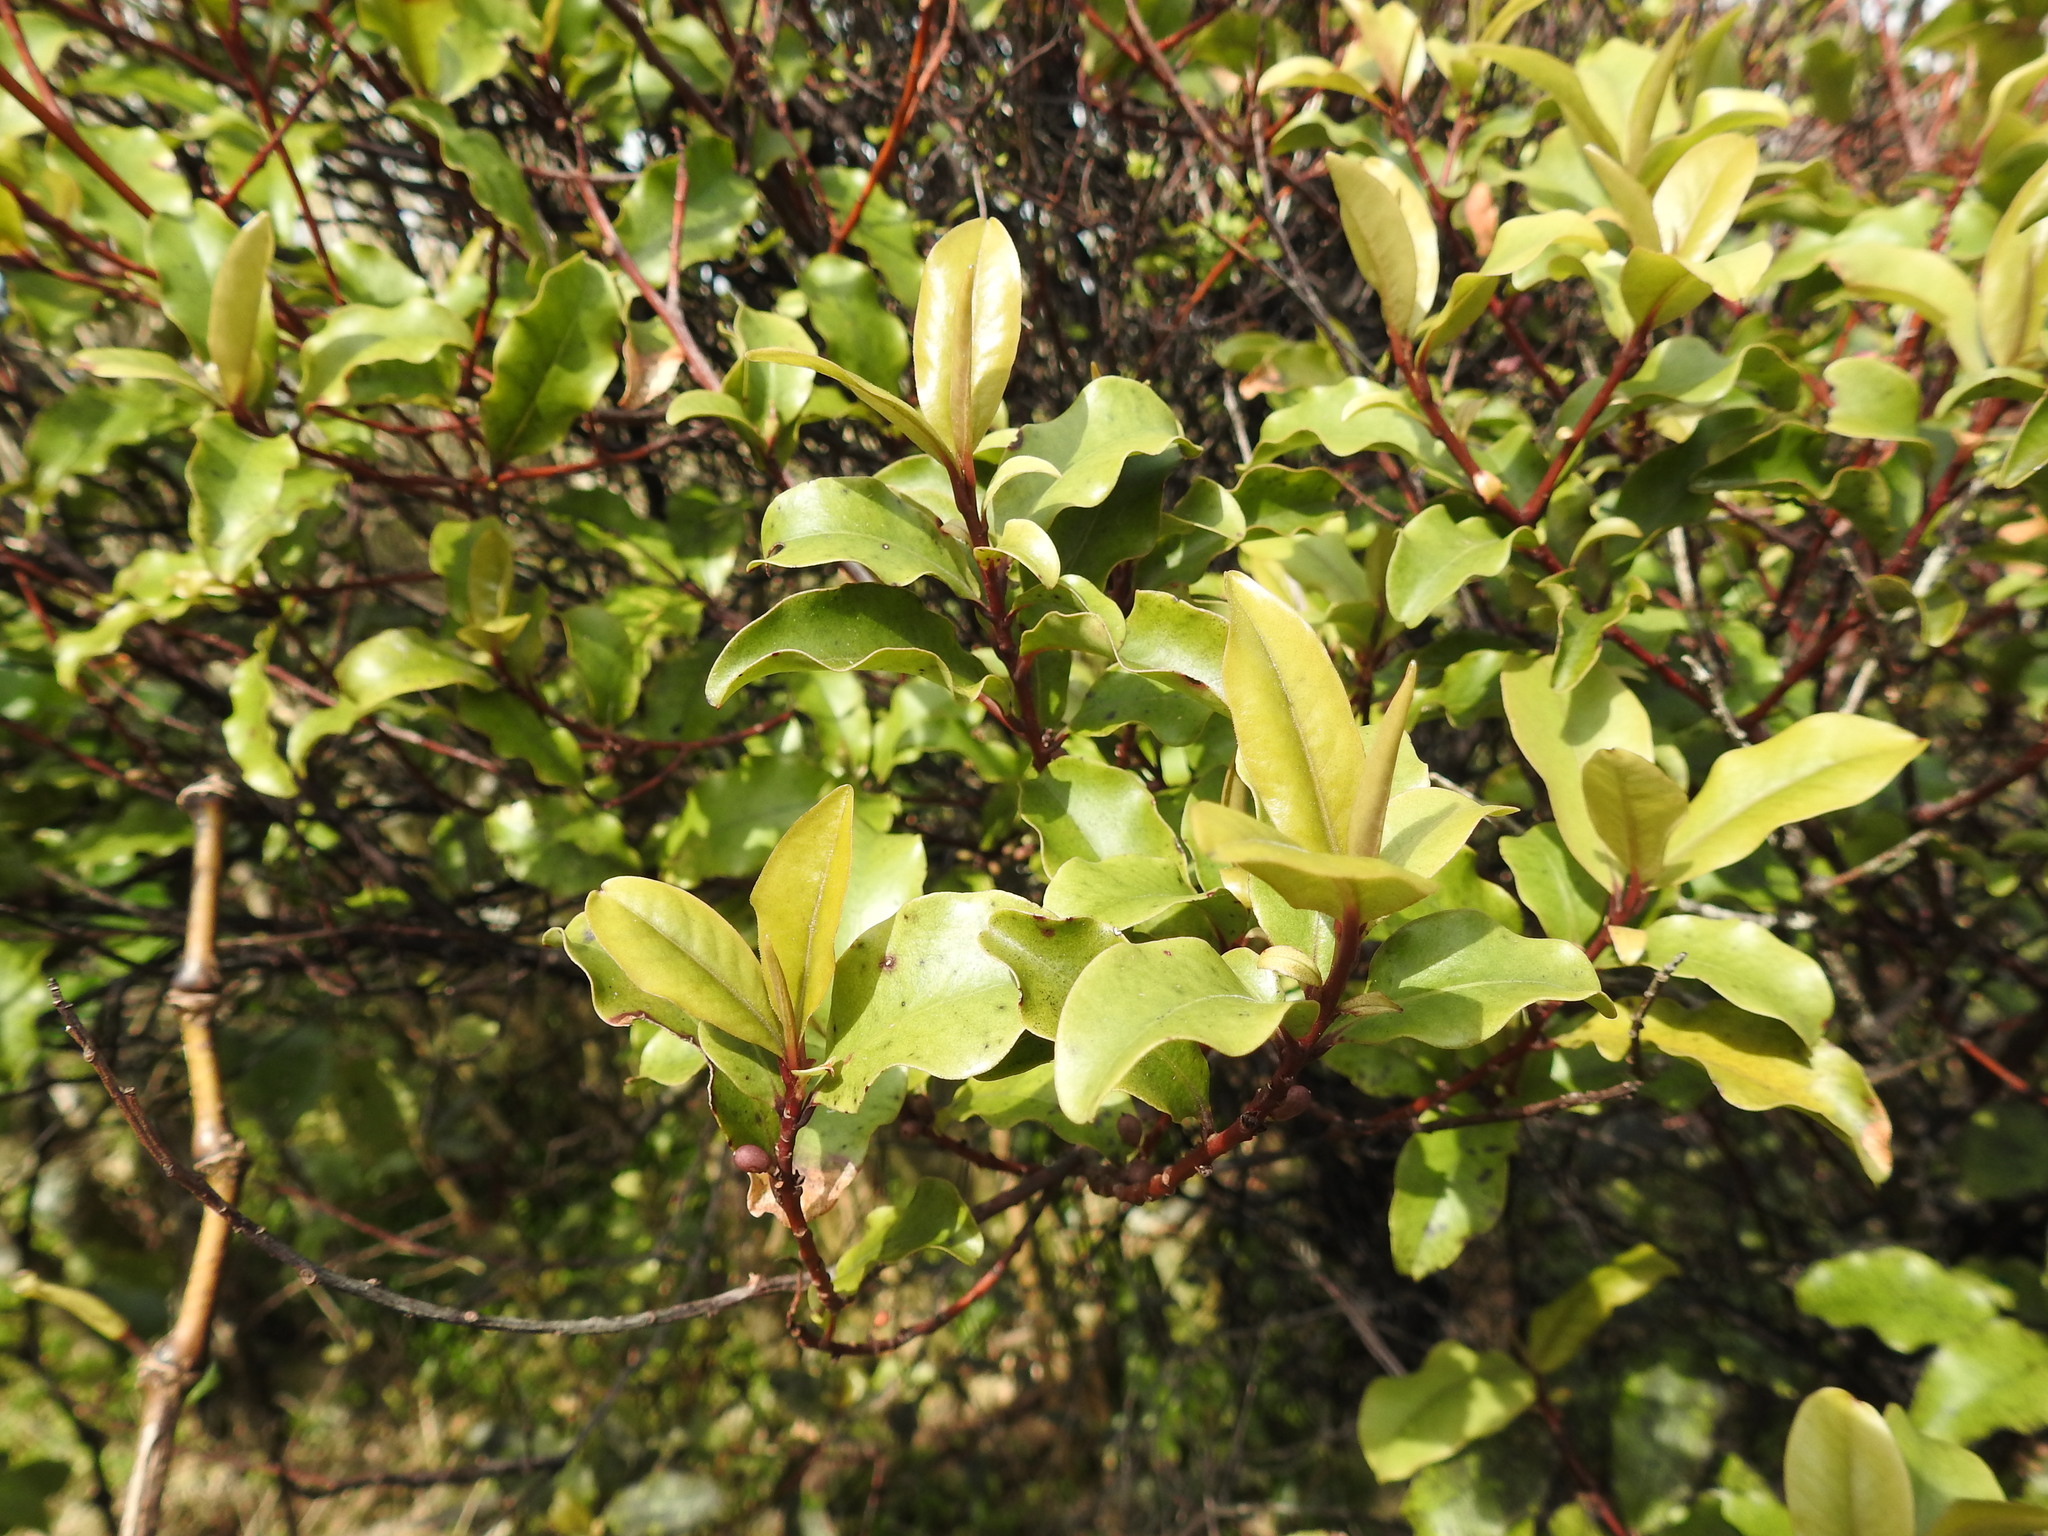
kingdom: Plantae
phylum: Tracheophyta
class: Magnoliopsida
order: Ericales
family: Primulaceae
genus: Myrsine
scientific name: Myrsine australis
